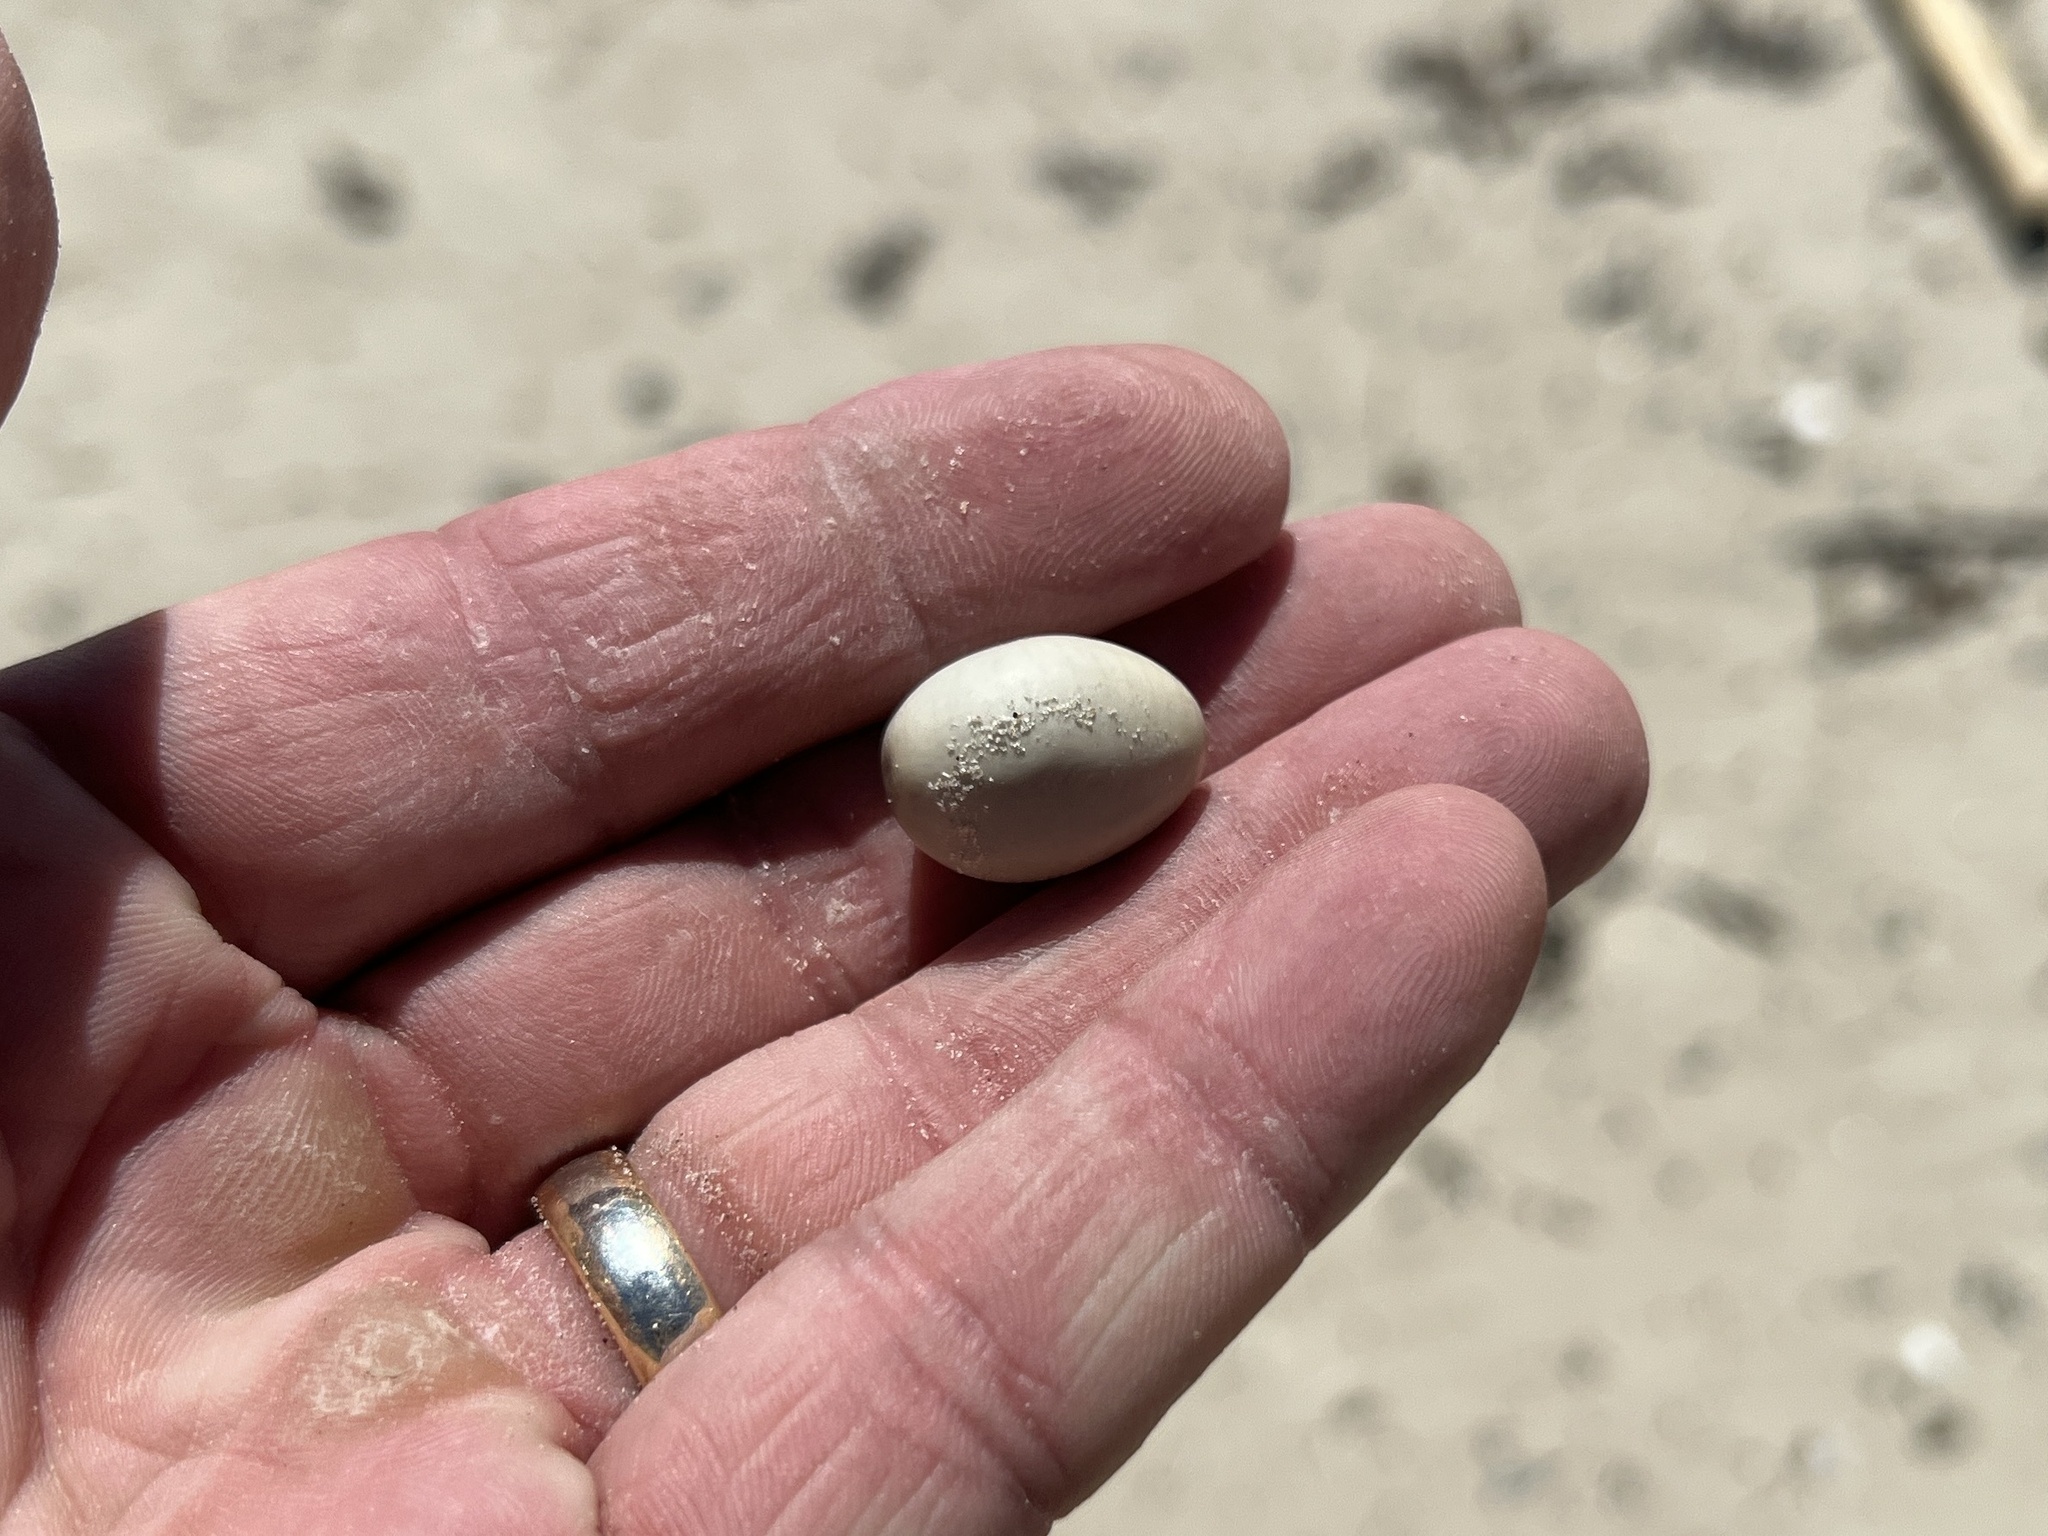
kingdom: Plantae
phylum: Tracheophyta
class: Magnoliopsida
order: Fabales
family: Fabaceae
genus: Guilandina
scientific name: Guilandina bonduc
